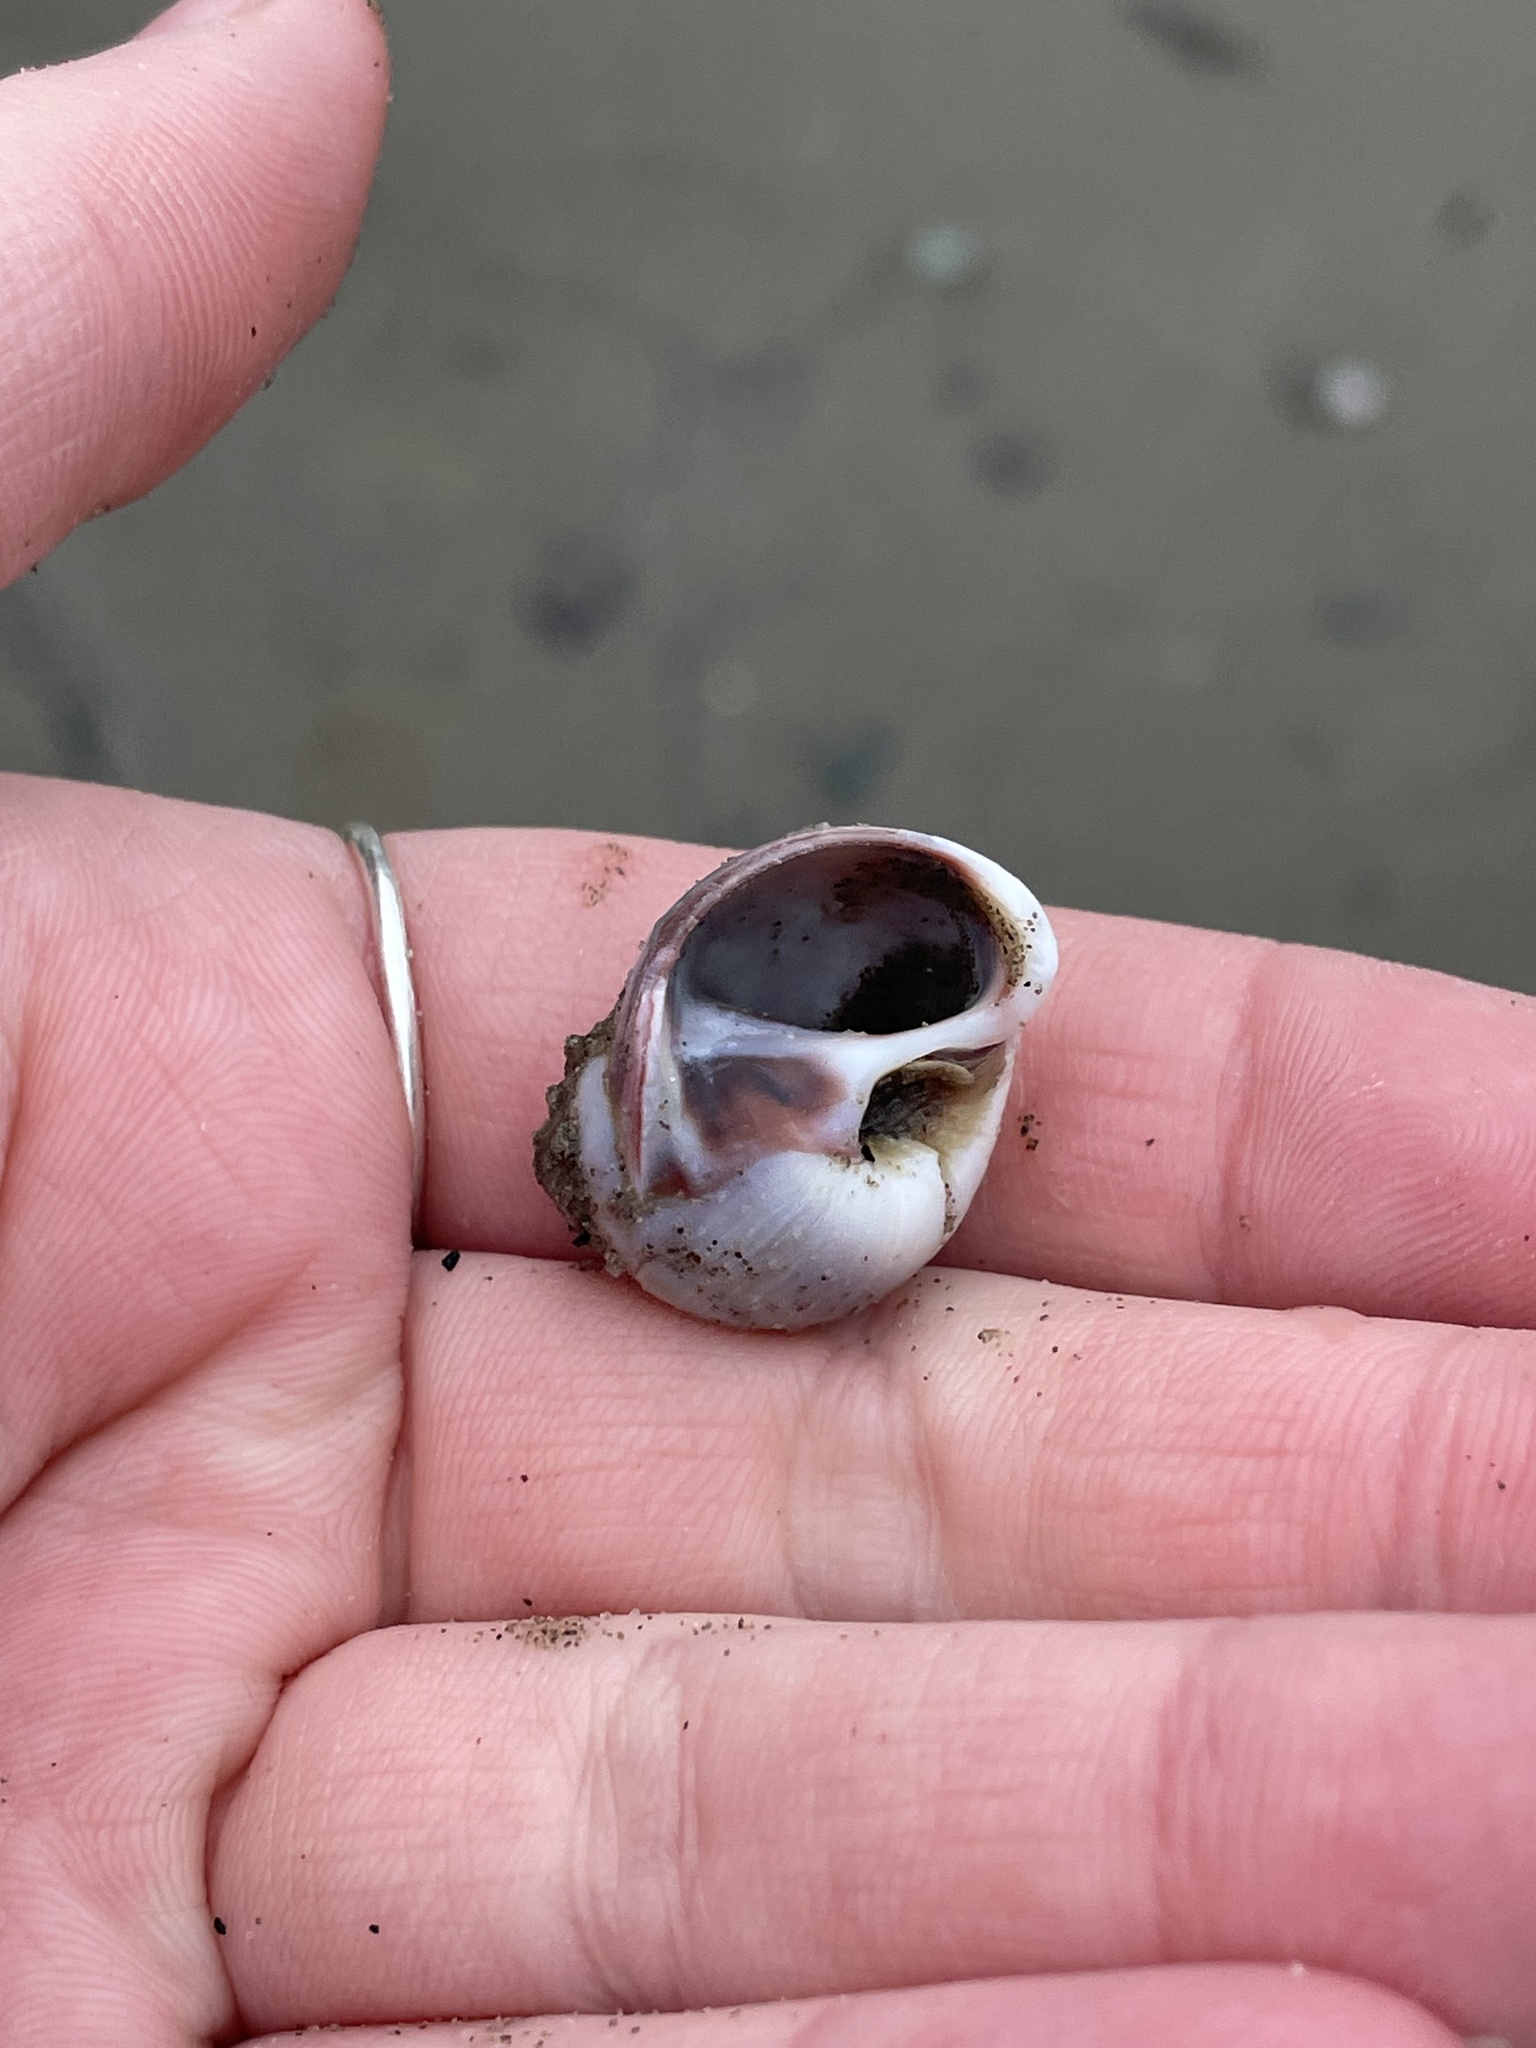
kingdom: Animalia
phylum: Mollusca
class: Gastropoda
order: Littorinimorpha
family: Naticidae
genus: Euspira
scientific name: Euspira heros
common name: Common northern moonsnail
